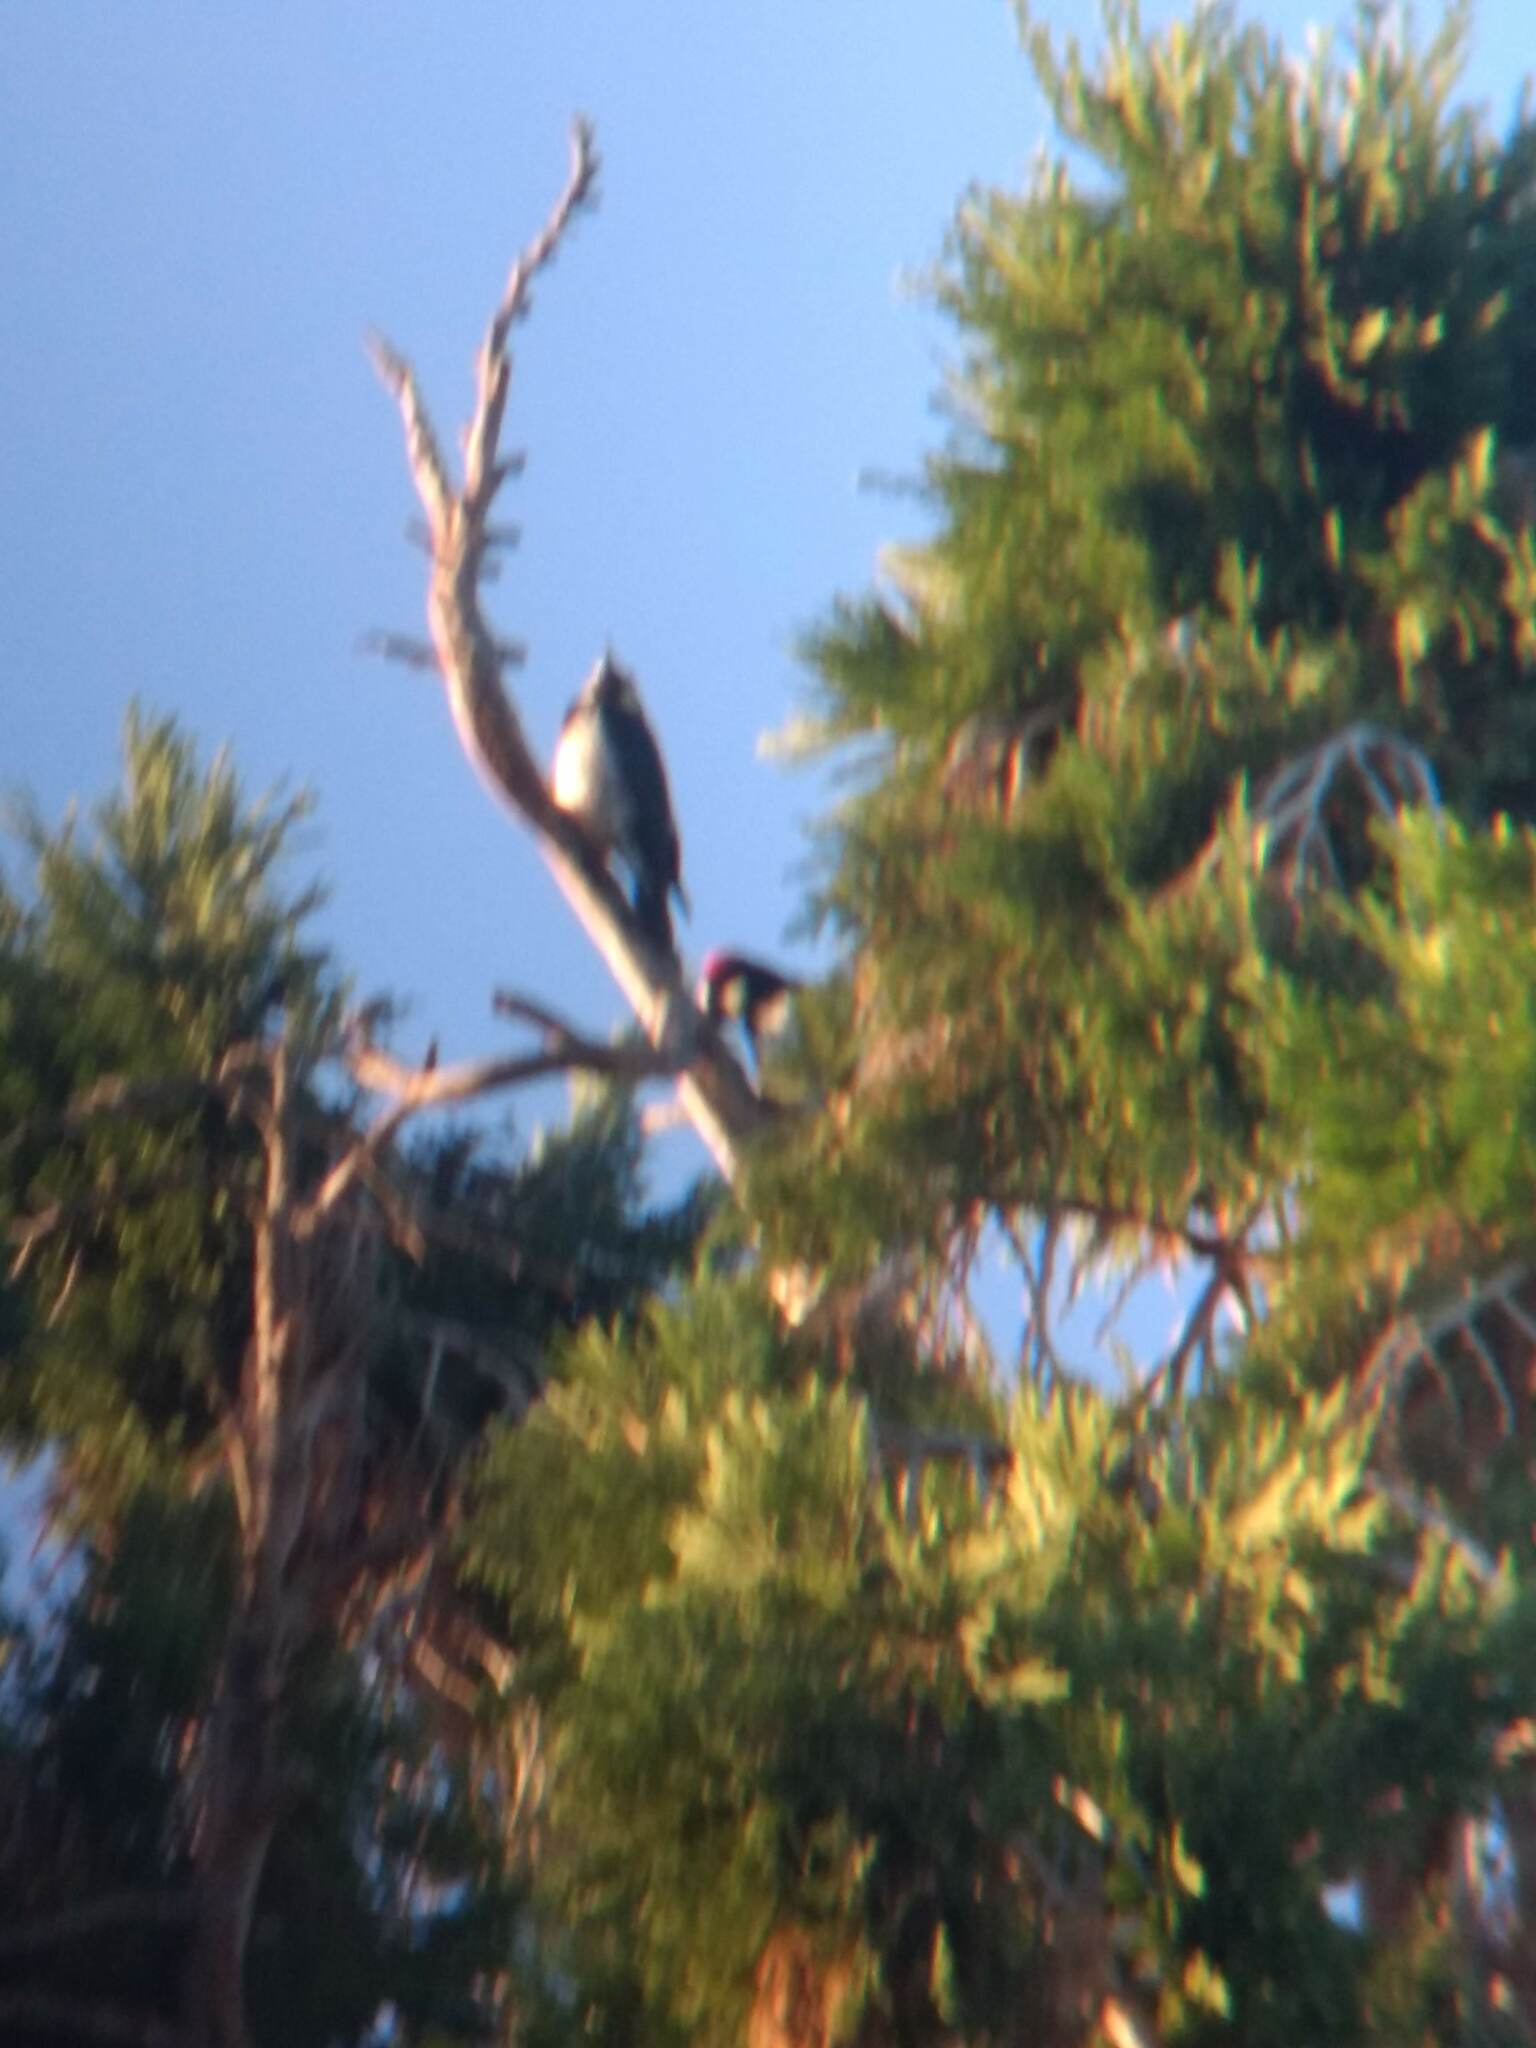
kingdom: Animalia
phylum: Chordata
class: Aves
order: Piciformes
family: Picidae
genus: Melanerpes
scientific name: Melanerpes formicivorus
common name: Acorn woodpecker
